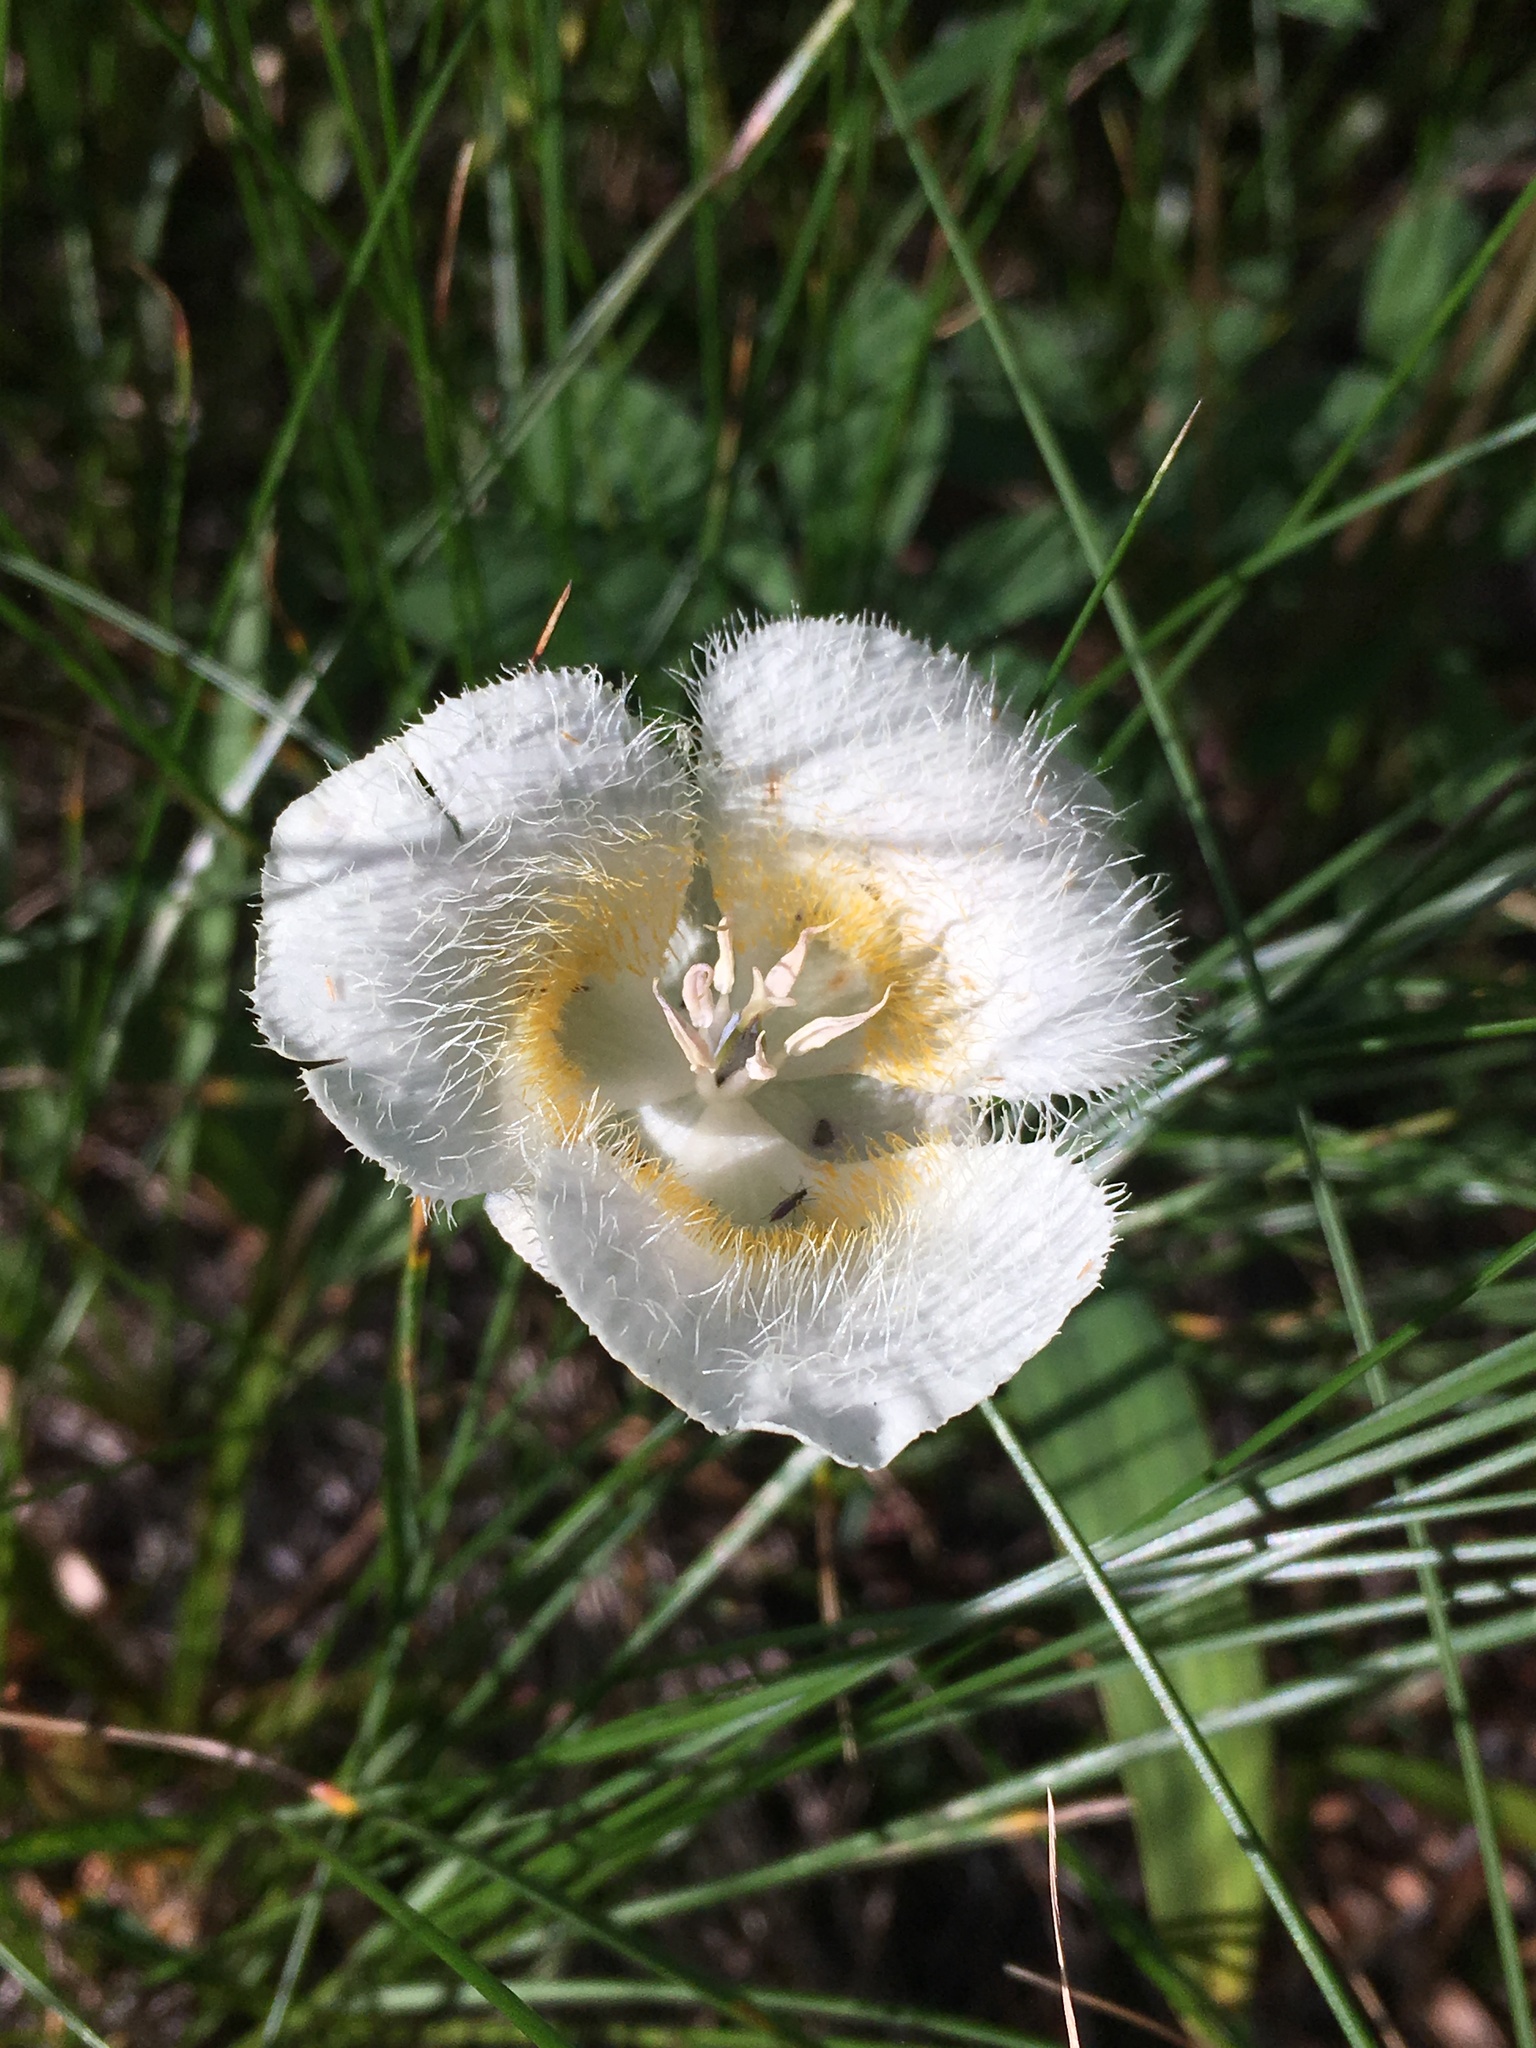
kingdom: Plantae
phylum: Tracheophyta
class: Liliopsida
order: Liliales
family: Liliaceae
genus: Calochortus
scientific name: Calochortus subalpinus
